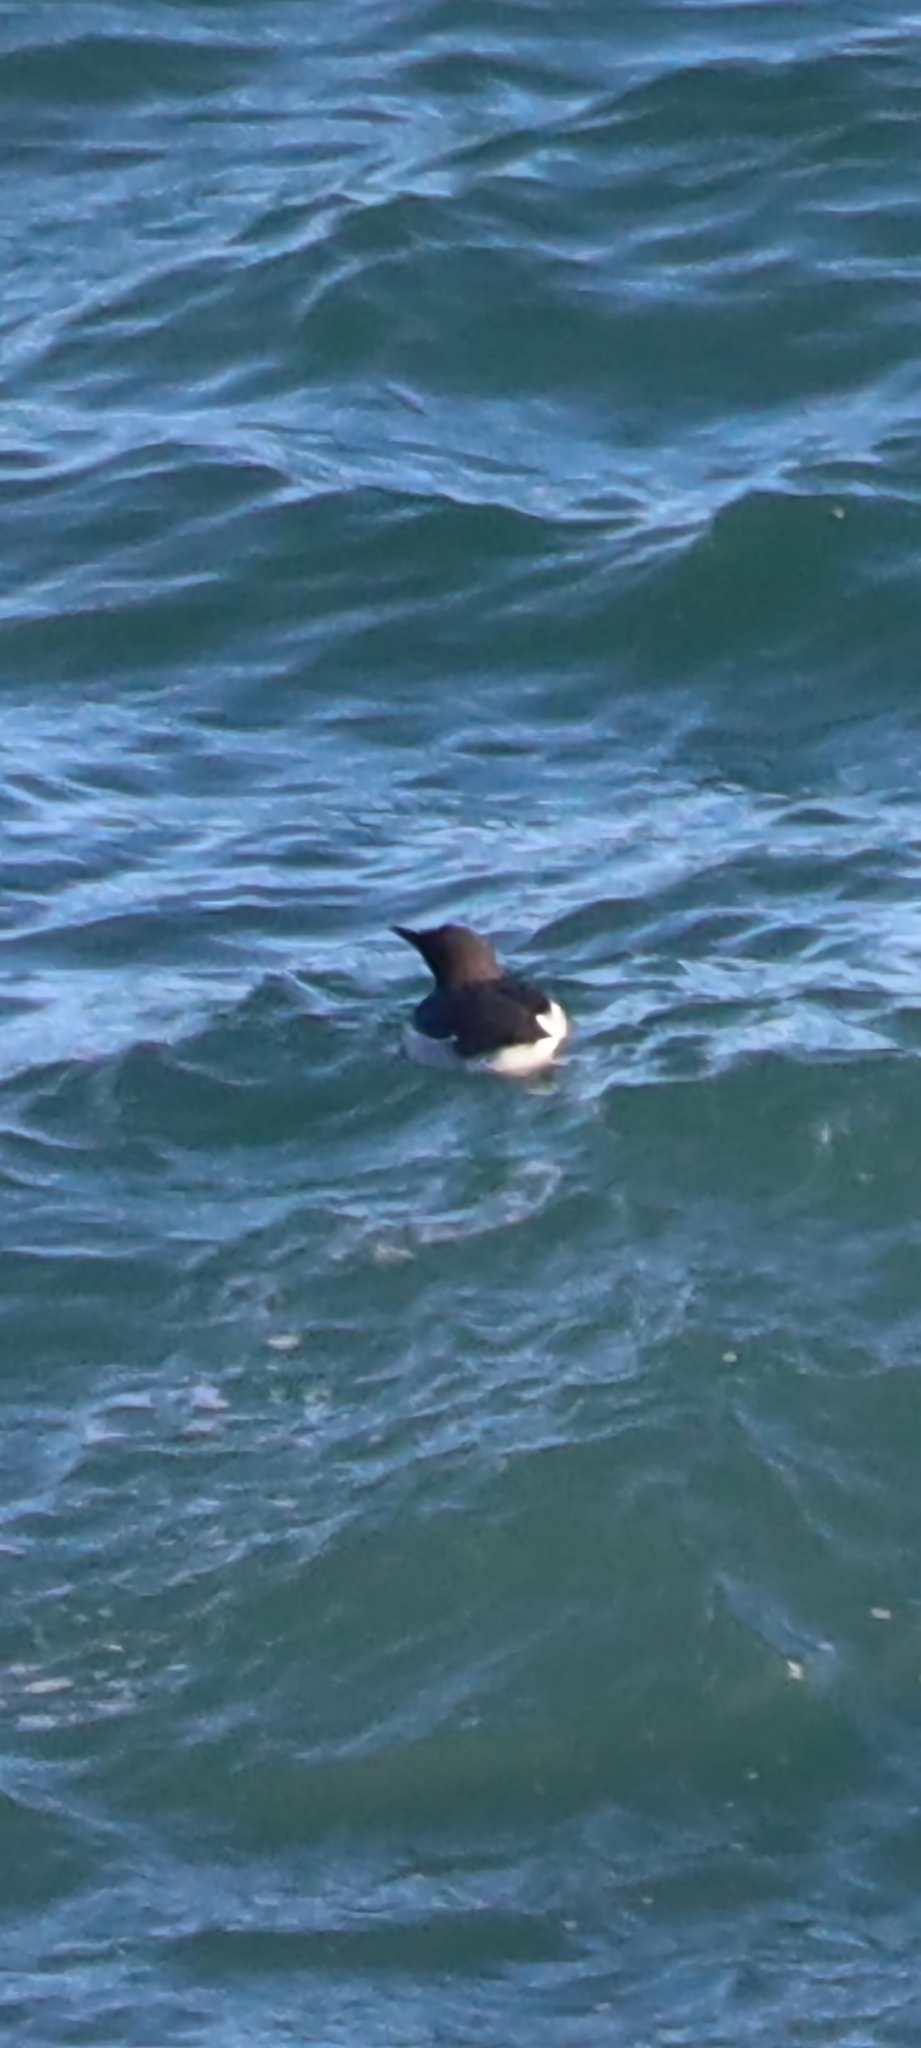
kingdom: Animalia
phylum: Chordata
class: Aves
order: Charadriiformes
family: Alcidae
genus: Uria
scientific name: Uria aalge
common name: Common murre
